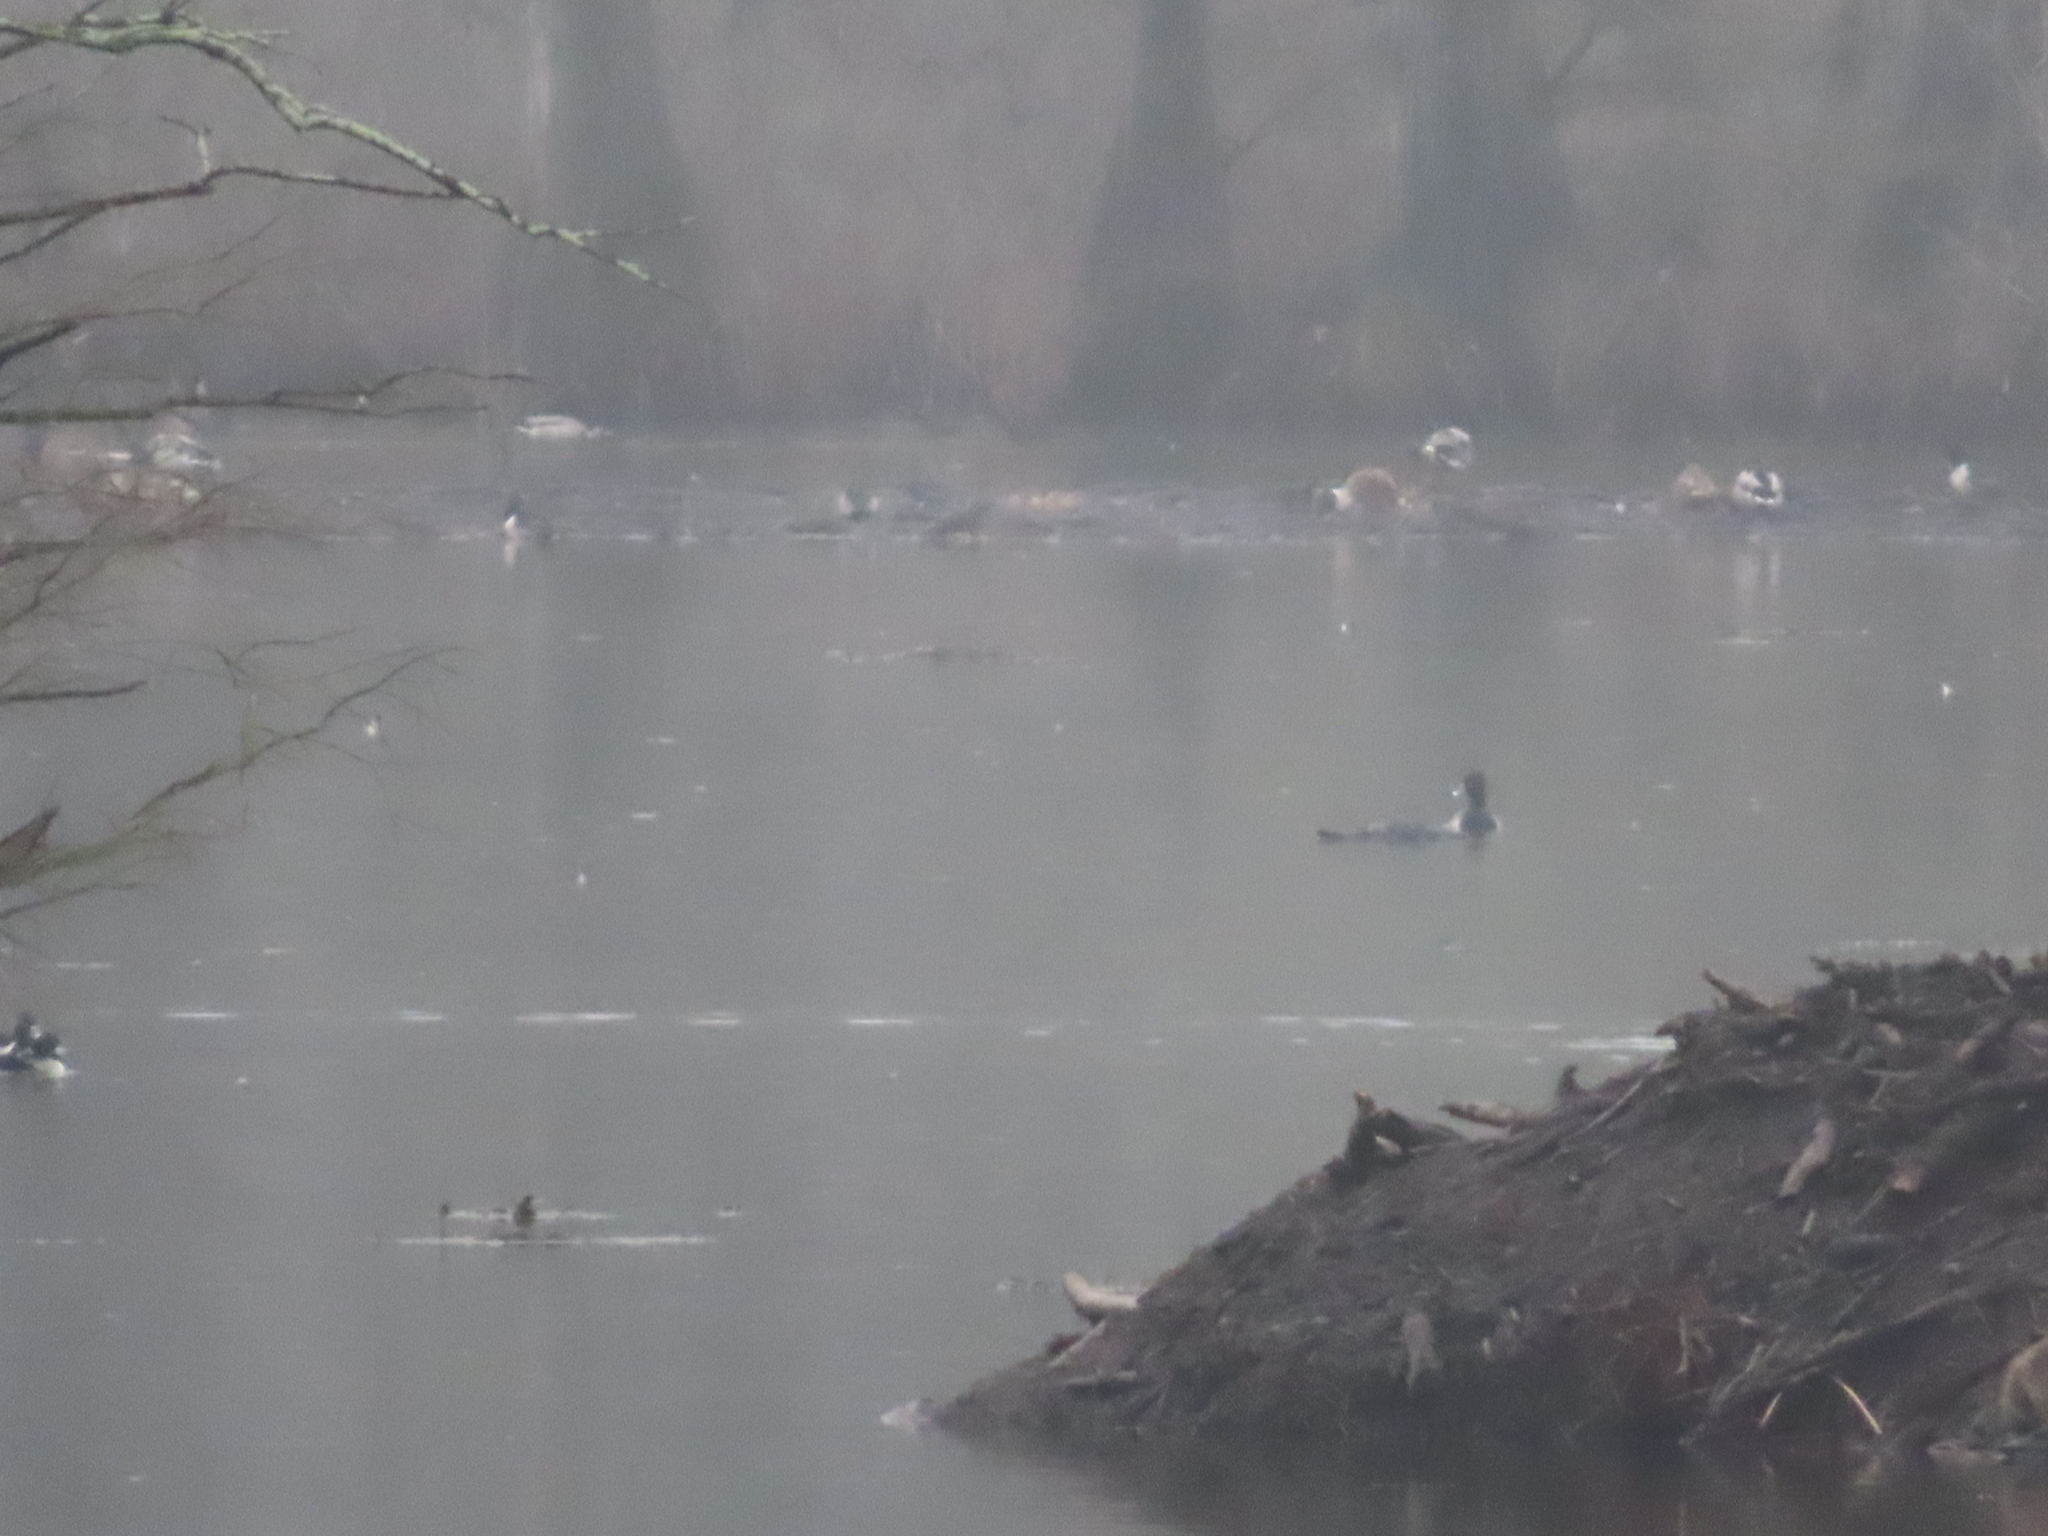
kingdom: Animalia
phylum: Chordata
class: Aves
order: Anseriformes
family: Anatidae
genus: Aythya
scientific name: Aythya collaris
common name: Ring-necked duck
